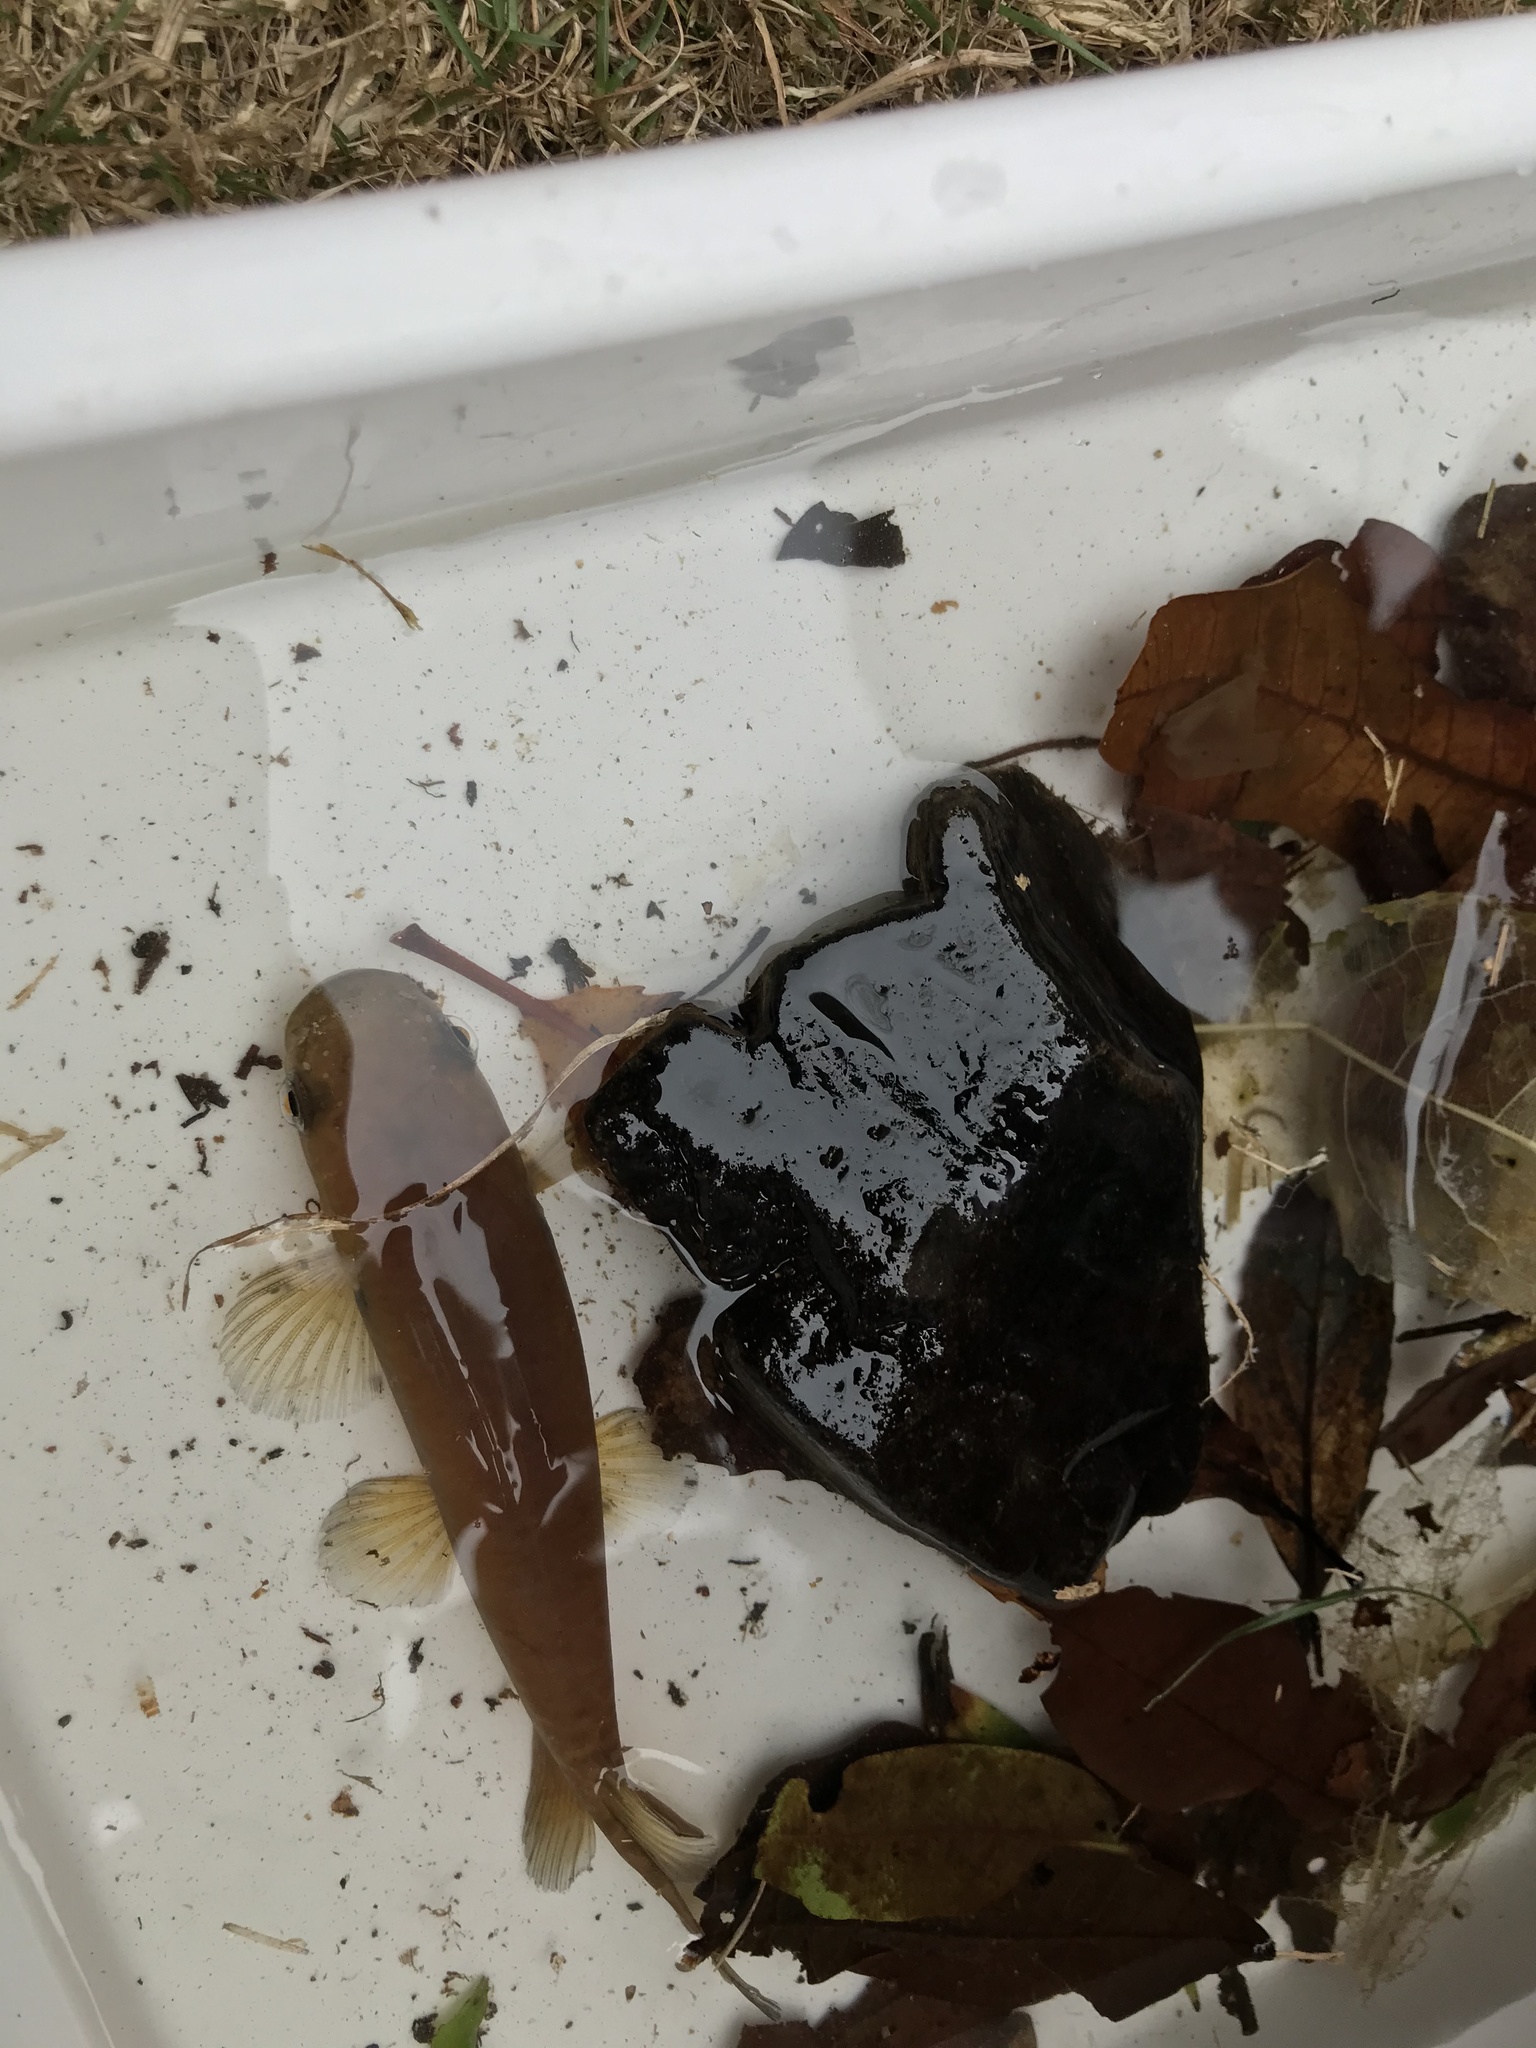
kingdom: Animalia
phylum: Chordata
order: Osmeriformes
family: Galaxiidae
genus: Galaxias
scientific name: Galaxias fasciatus
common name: Banded kokopu
